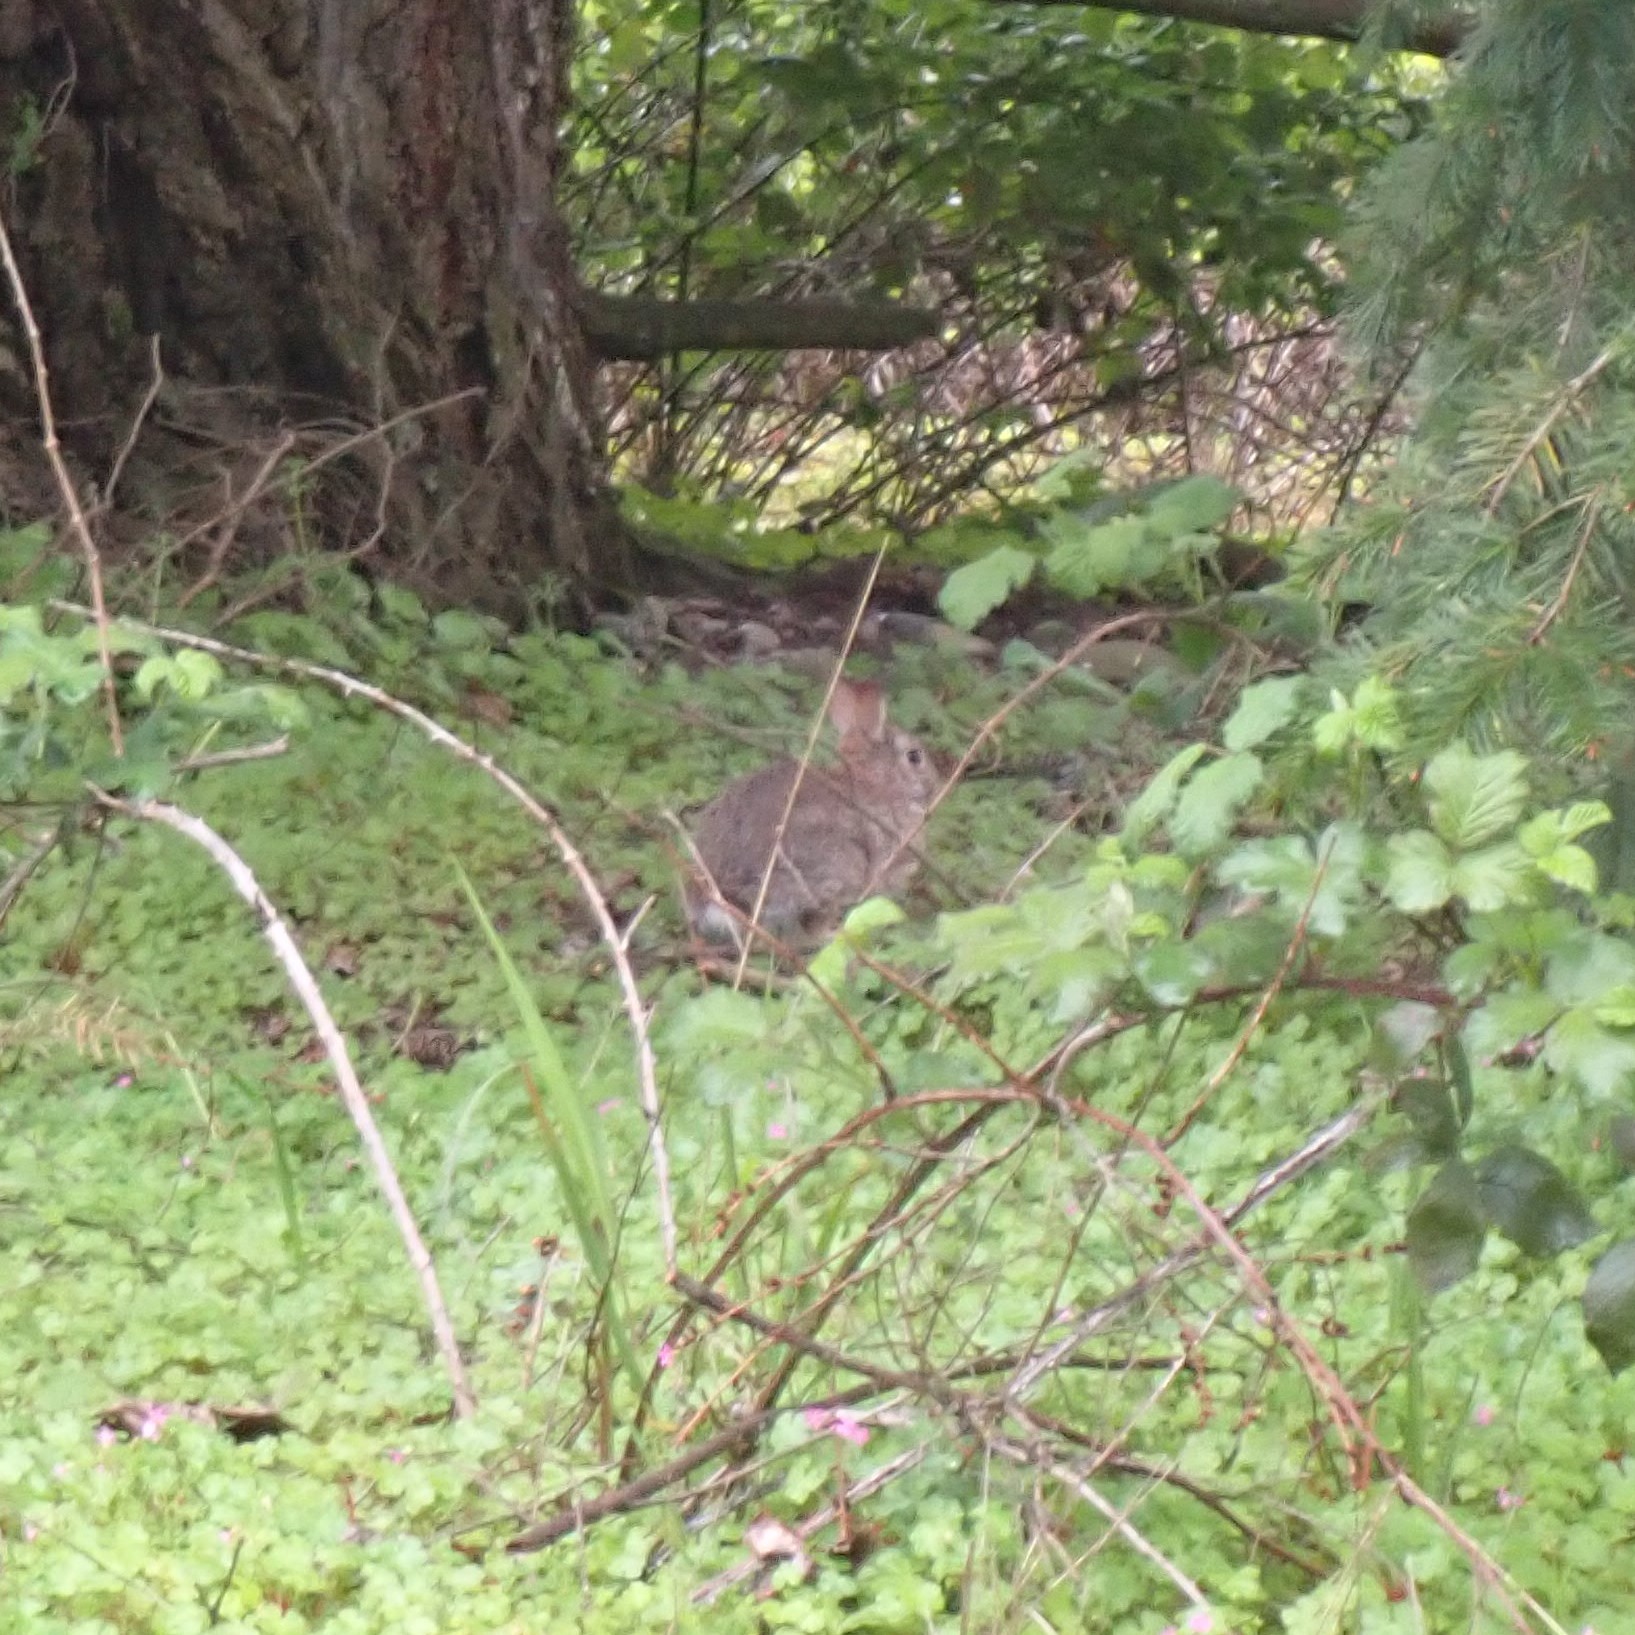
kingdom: Animalia
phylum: Chordata
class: Mammalia
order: Lagomorpha
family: Leporidae
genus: Sylvilagus
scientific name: Sylvilagus floridanus
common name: Eastern cottontail
